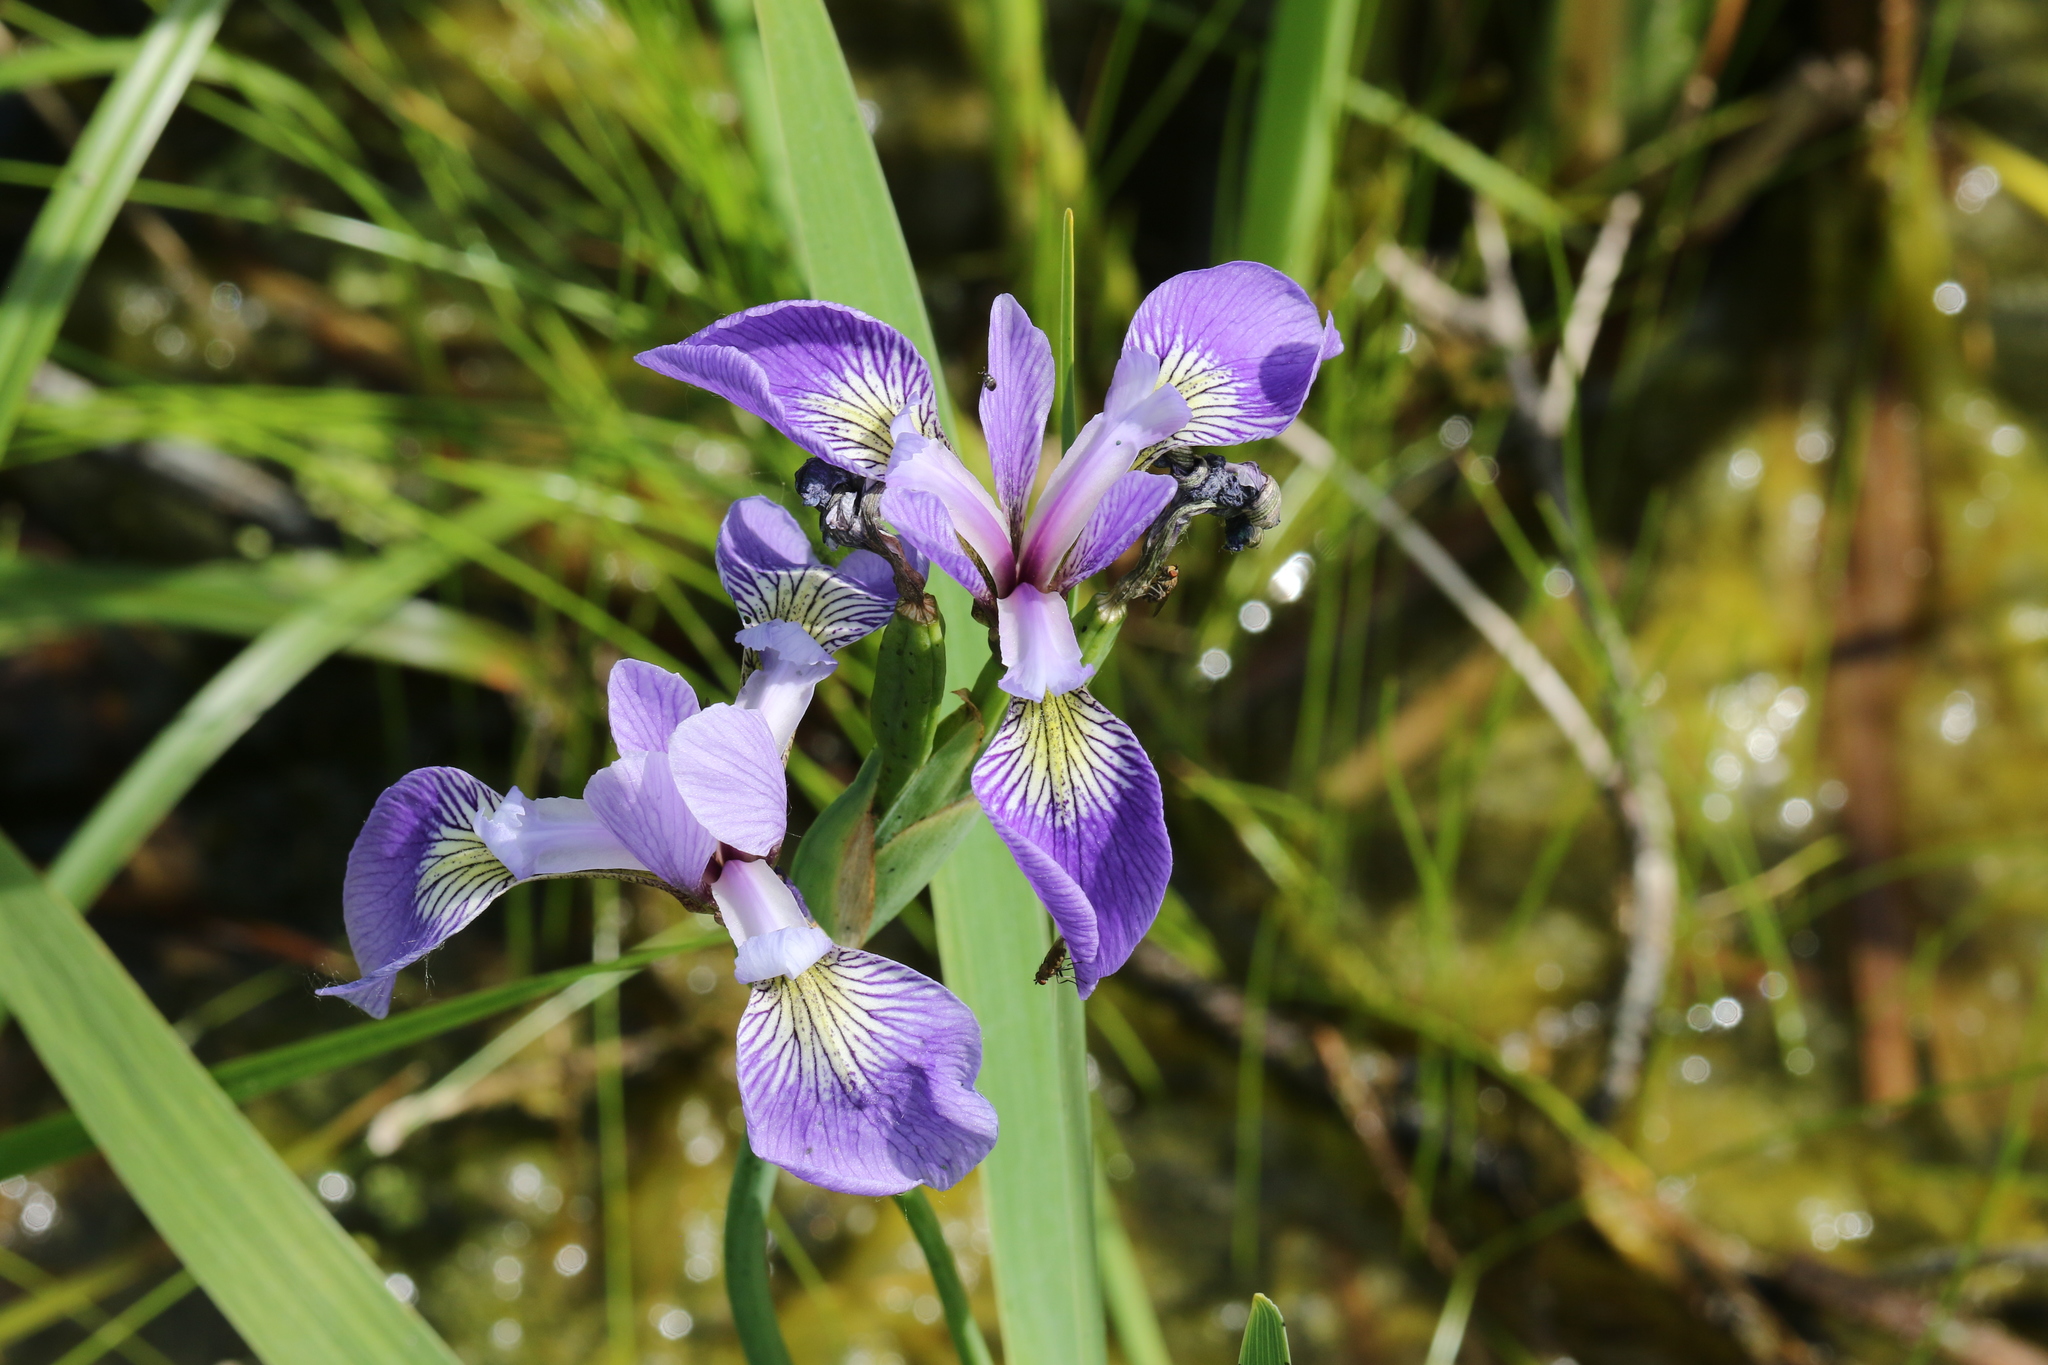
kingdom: Plantae
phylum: Tracheophyta
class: Liliopsida
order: Asparagales
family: Iridaceae
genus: Iris
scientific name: Iris versicolor
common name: Purple iris
